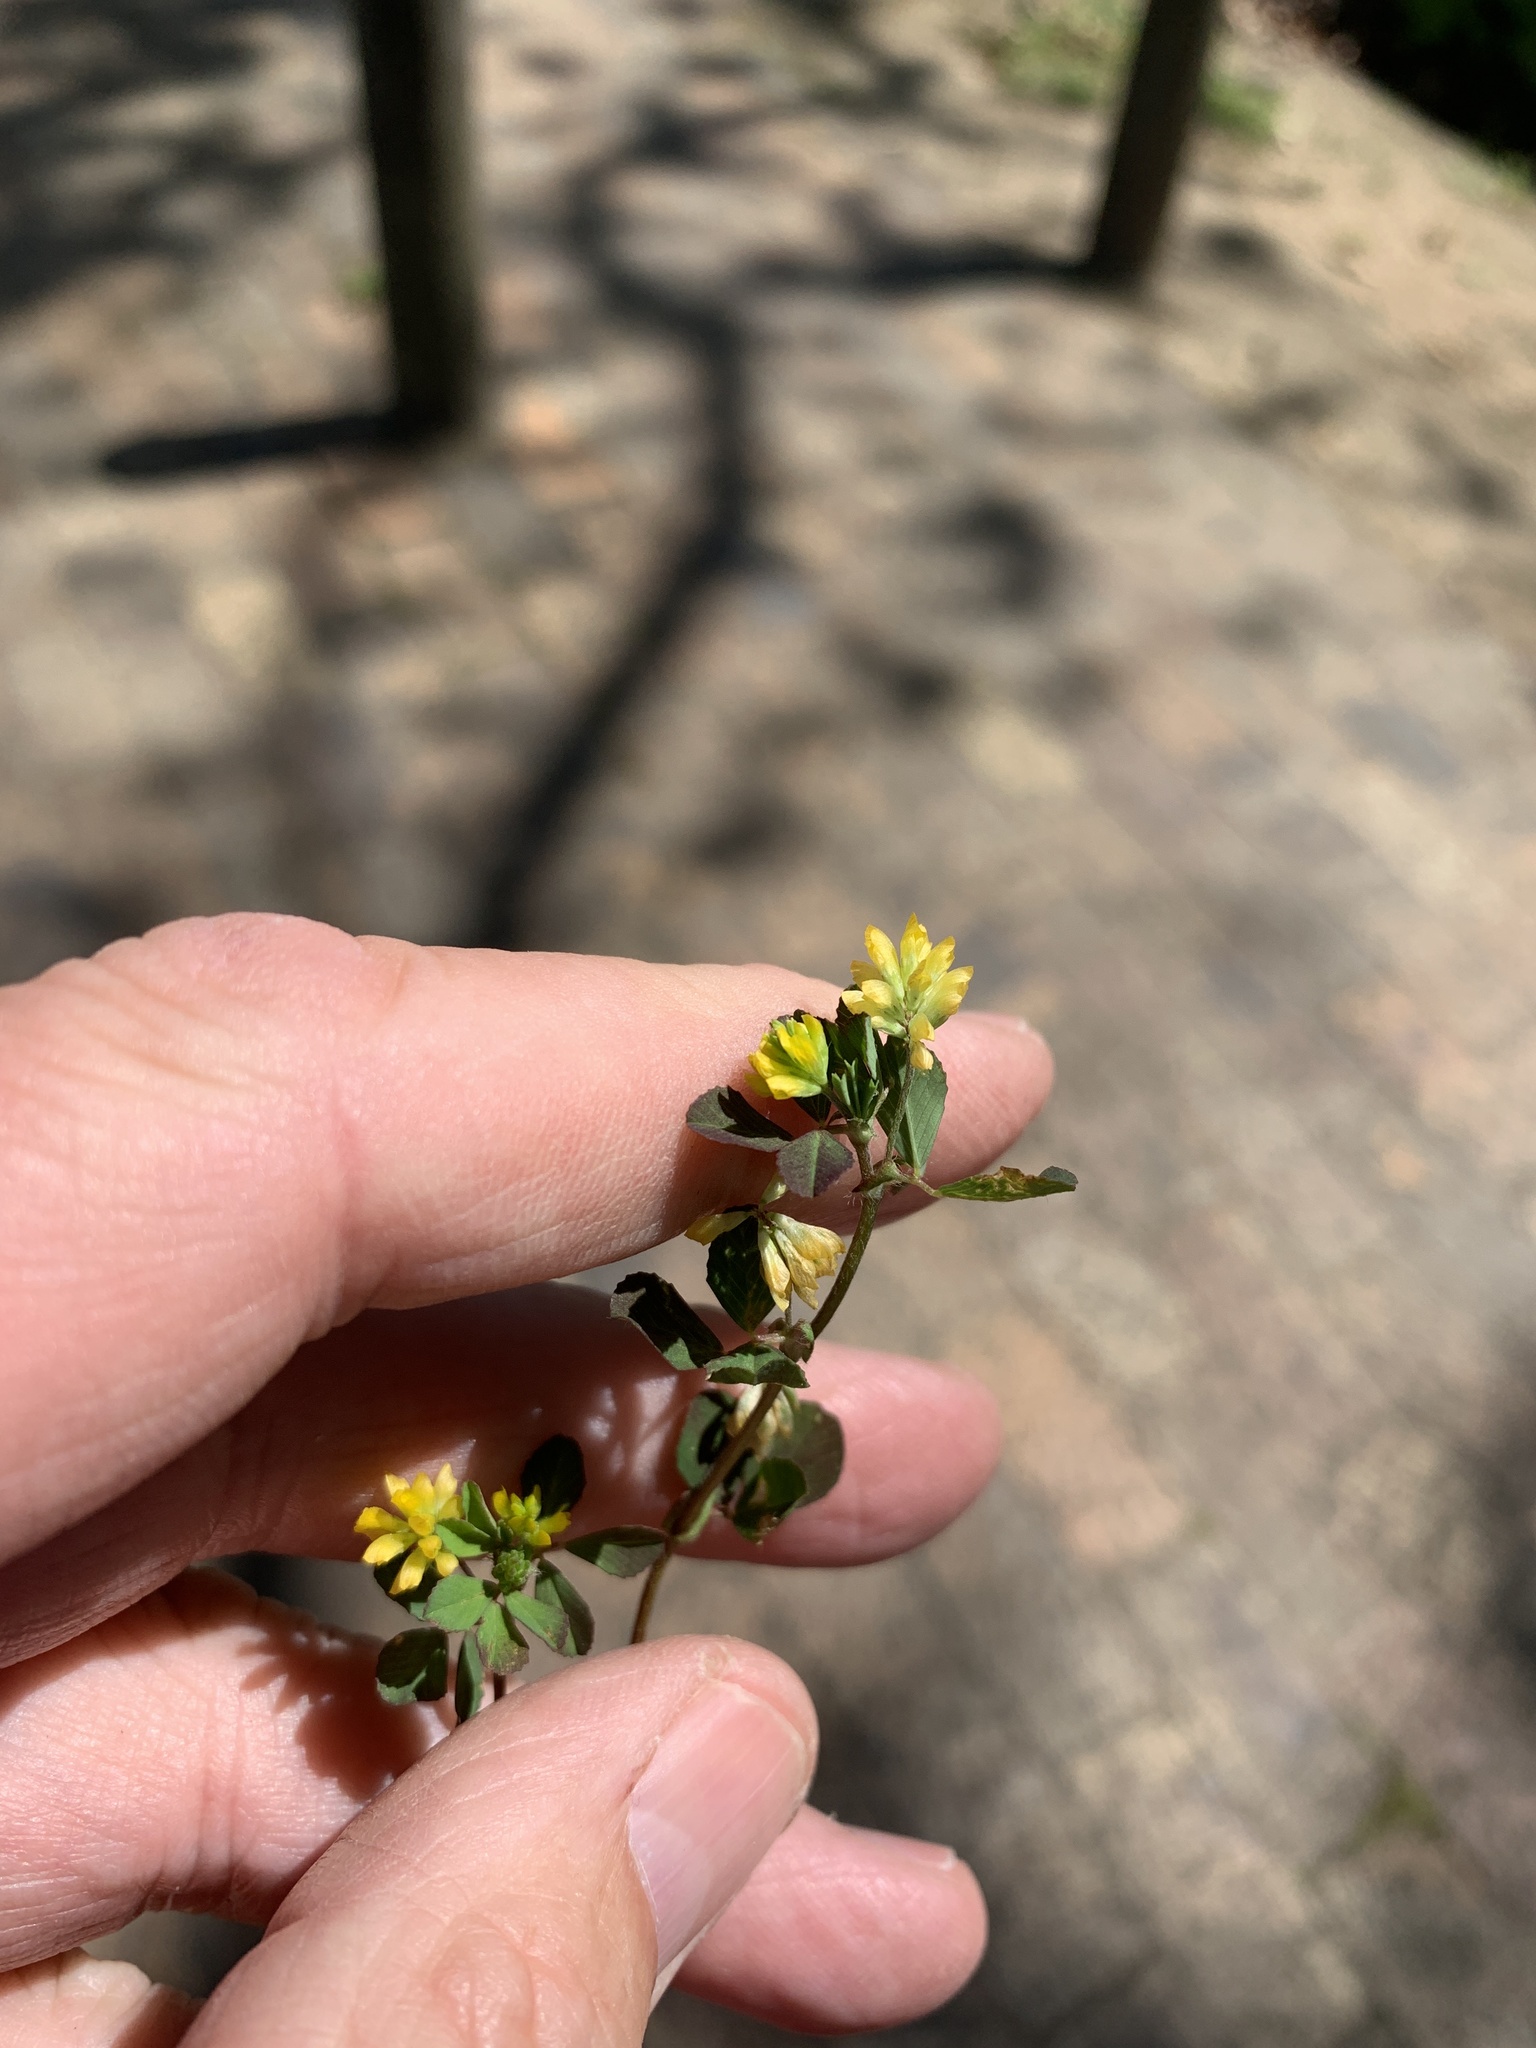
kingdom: Plantae
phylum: Tracheophyta
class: Magnoliopsida
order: Fabales
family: Fabaceae
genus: Trifolium
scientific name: Trifolium dubium
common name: Suckling clover
